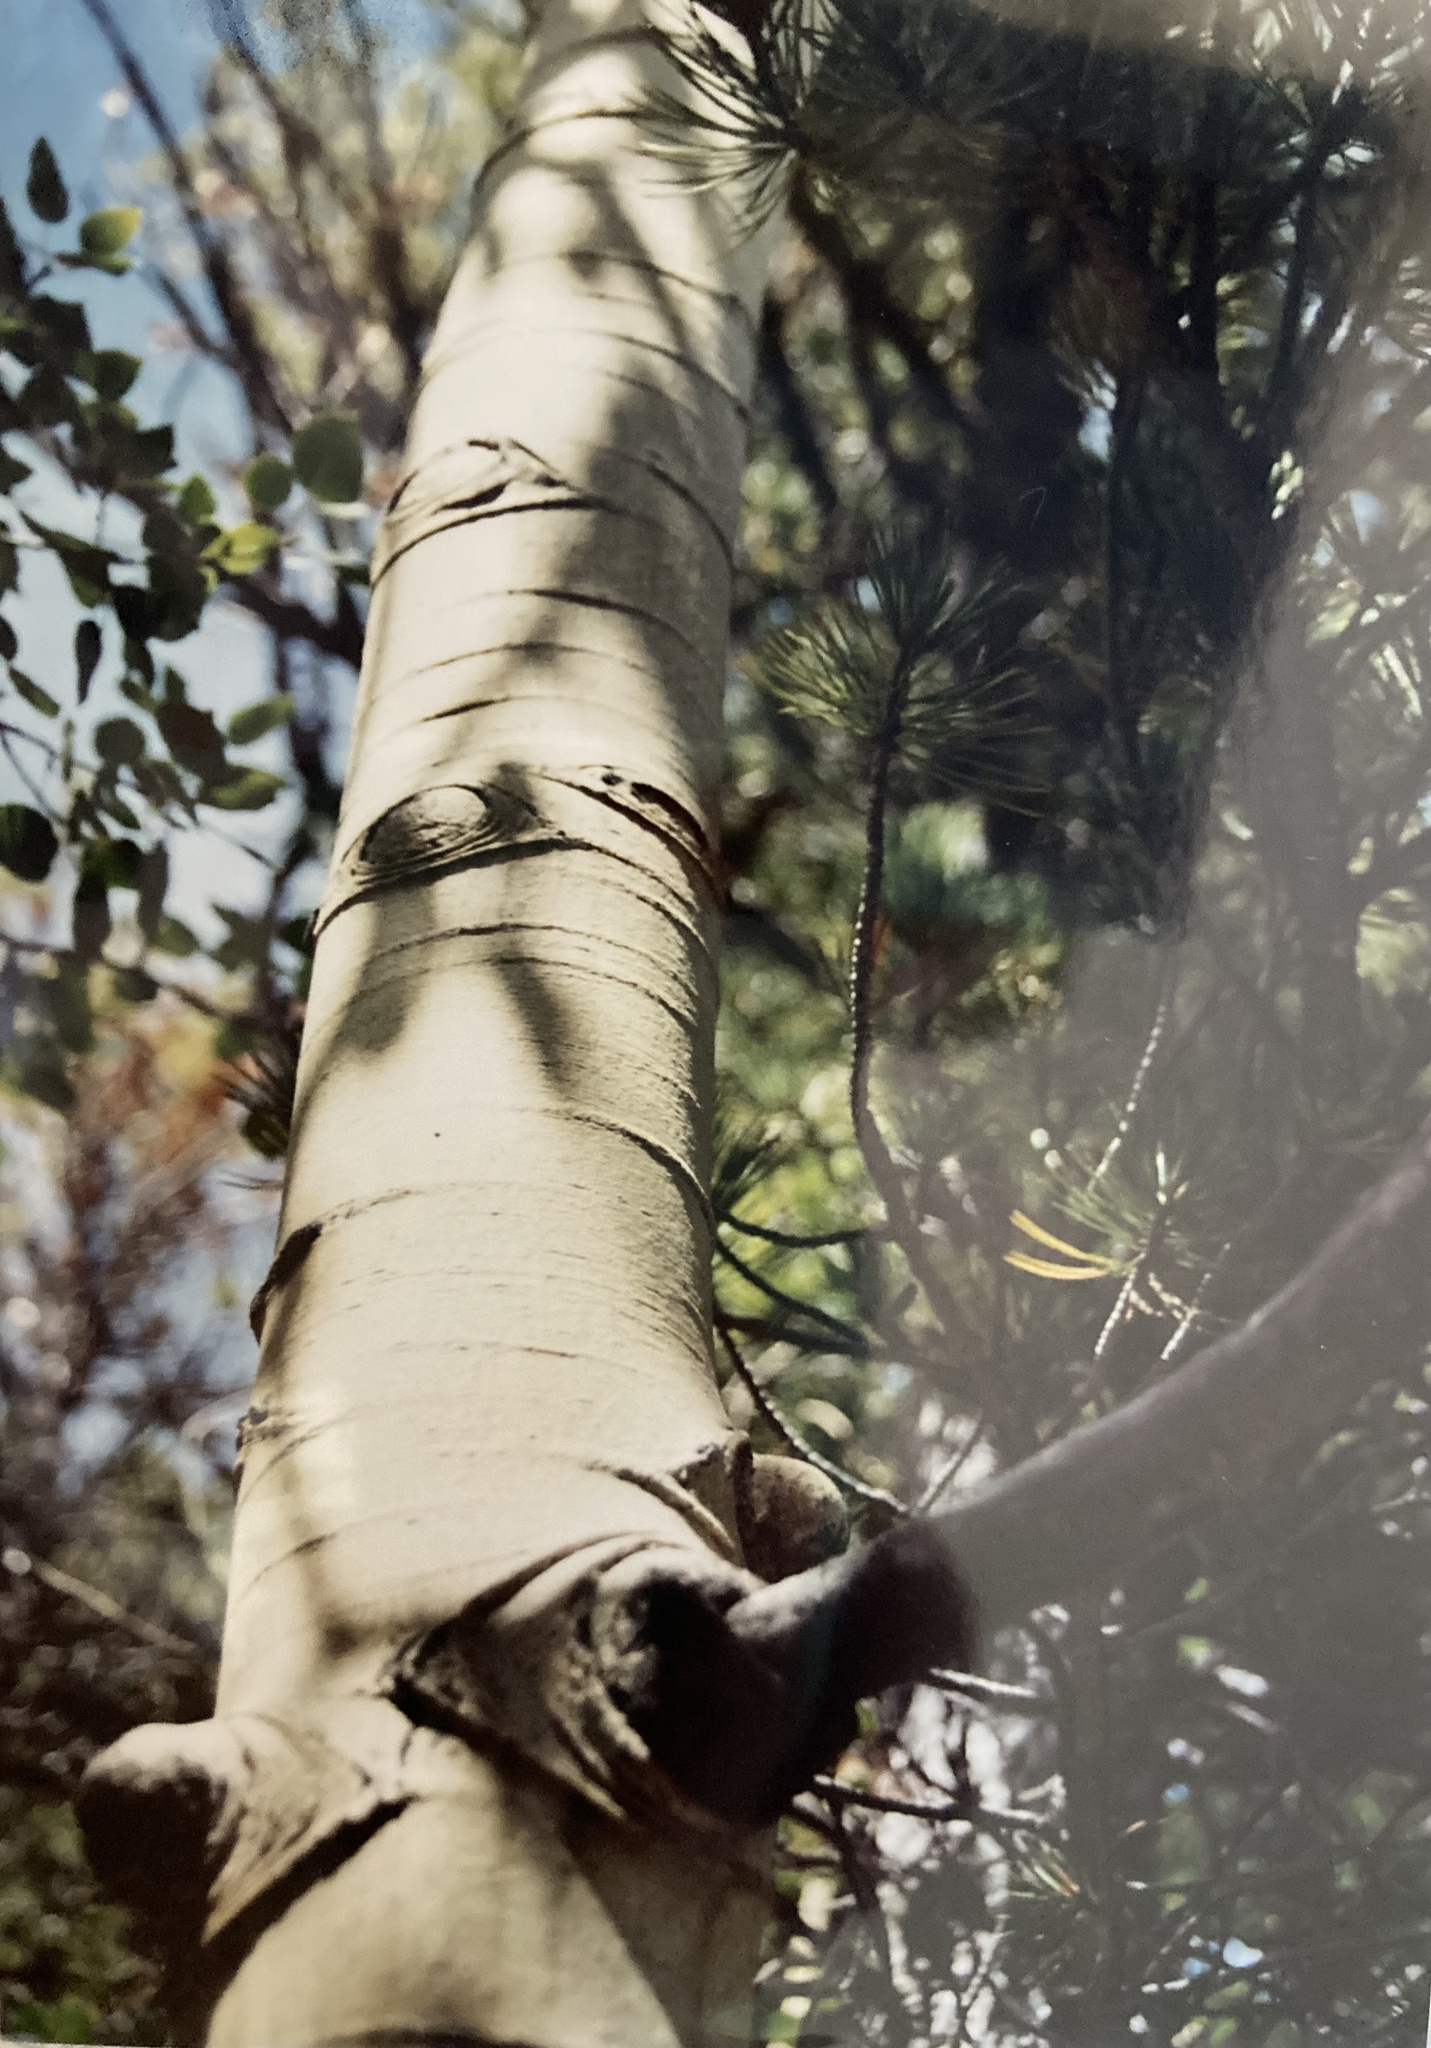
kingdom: Plantae
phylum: Tracheophyta
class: Magnoliopsida
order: Malpighiales
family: Salicaceae
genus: Populus
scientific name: Populus tremuloides
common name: Quaking aspen
